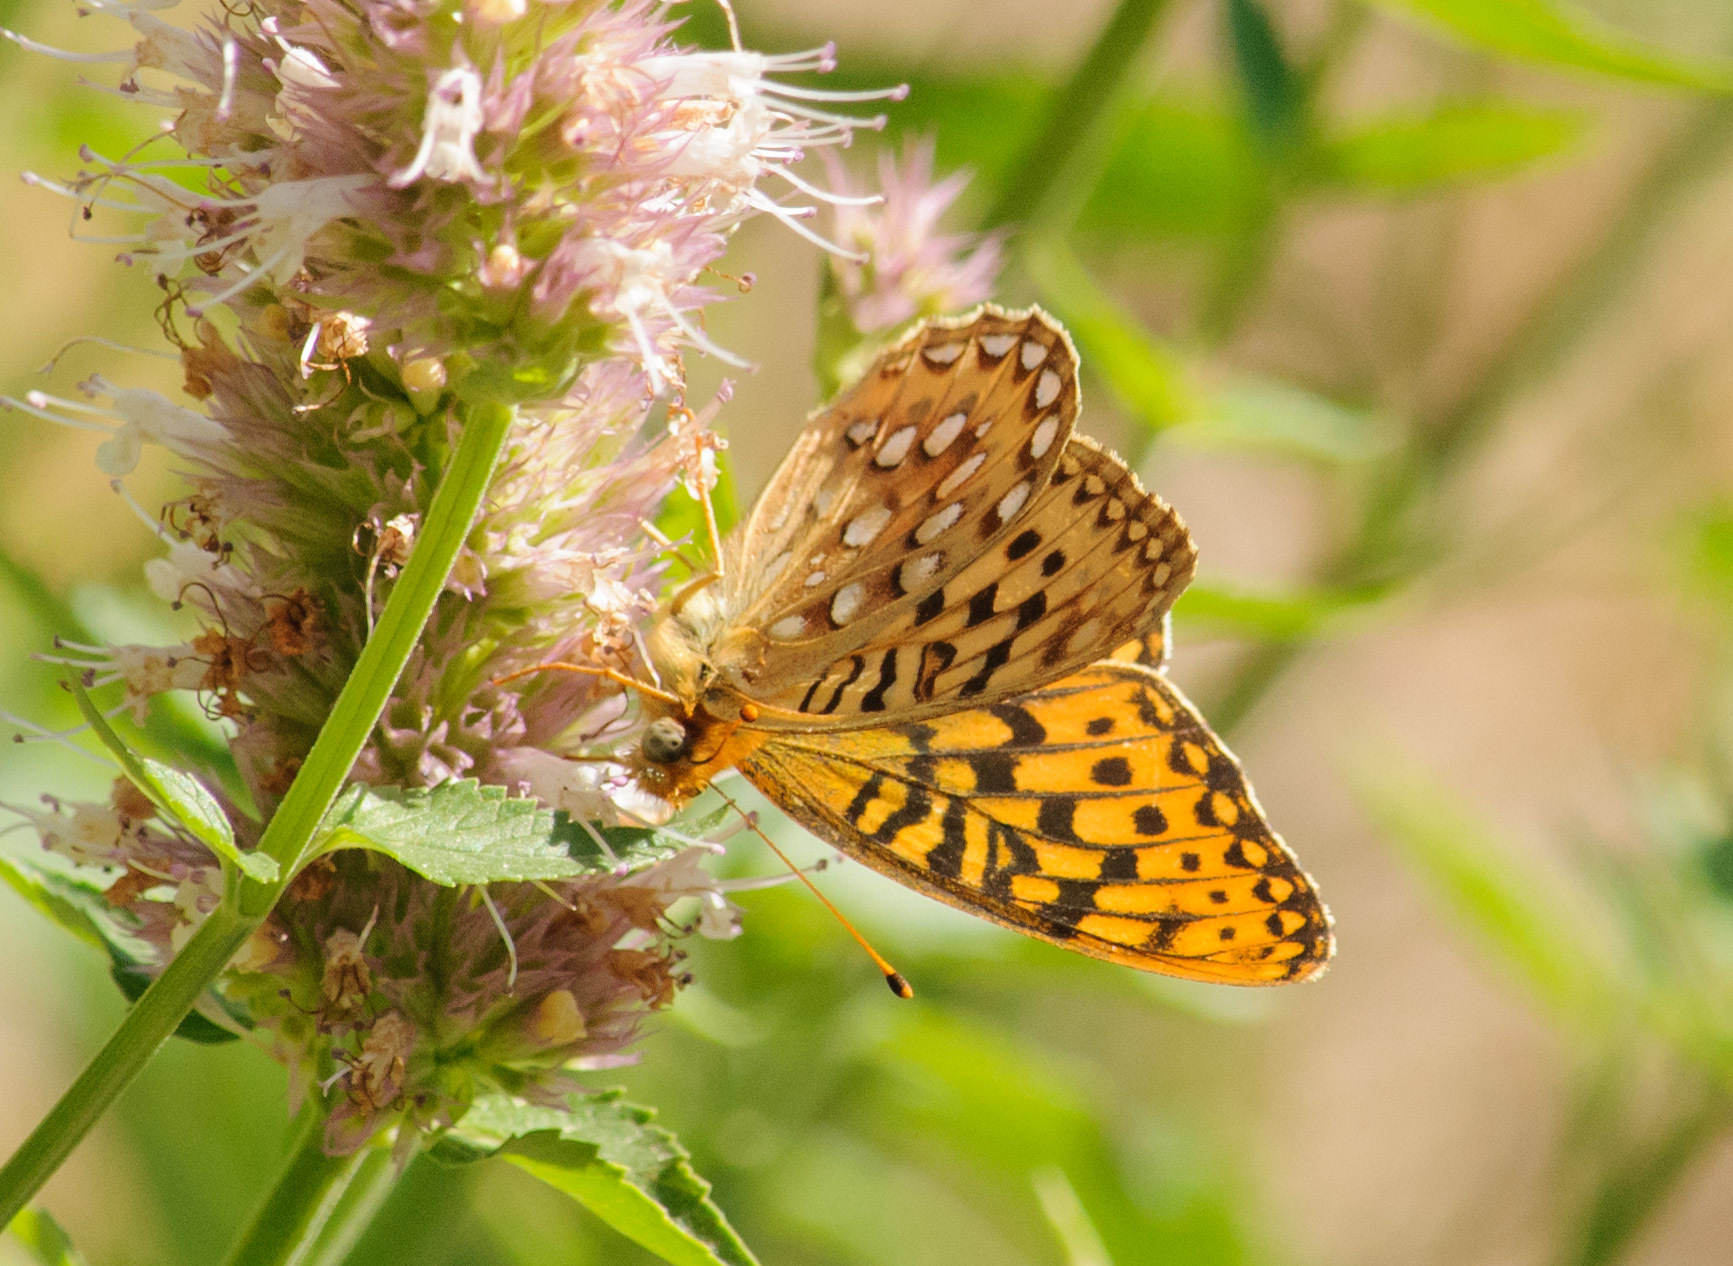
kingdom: Animalia
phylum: Arthropoda
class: Insecta
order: Lepidoptera
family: Nymphalidae
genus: Speyeria
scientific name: Speyeria callippe
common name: Callippe fritillary
